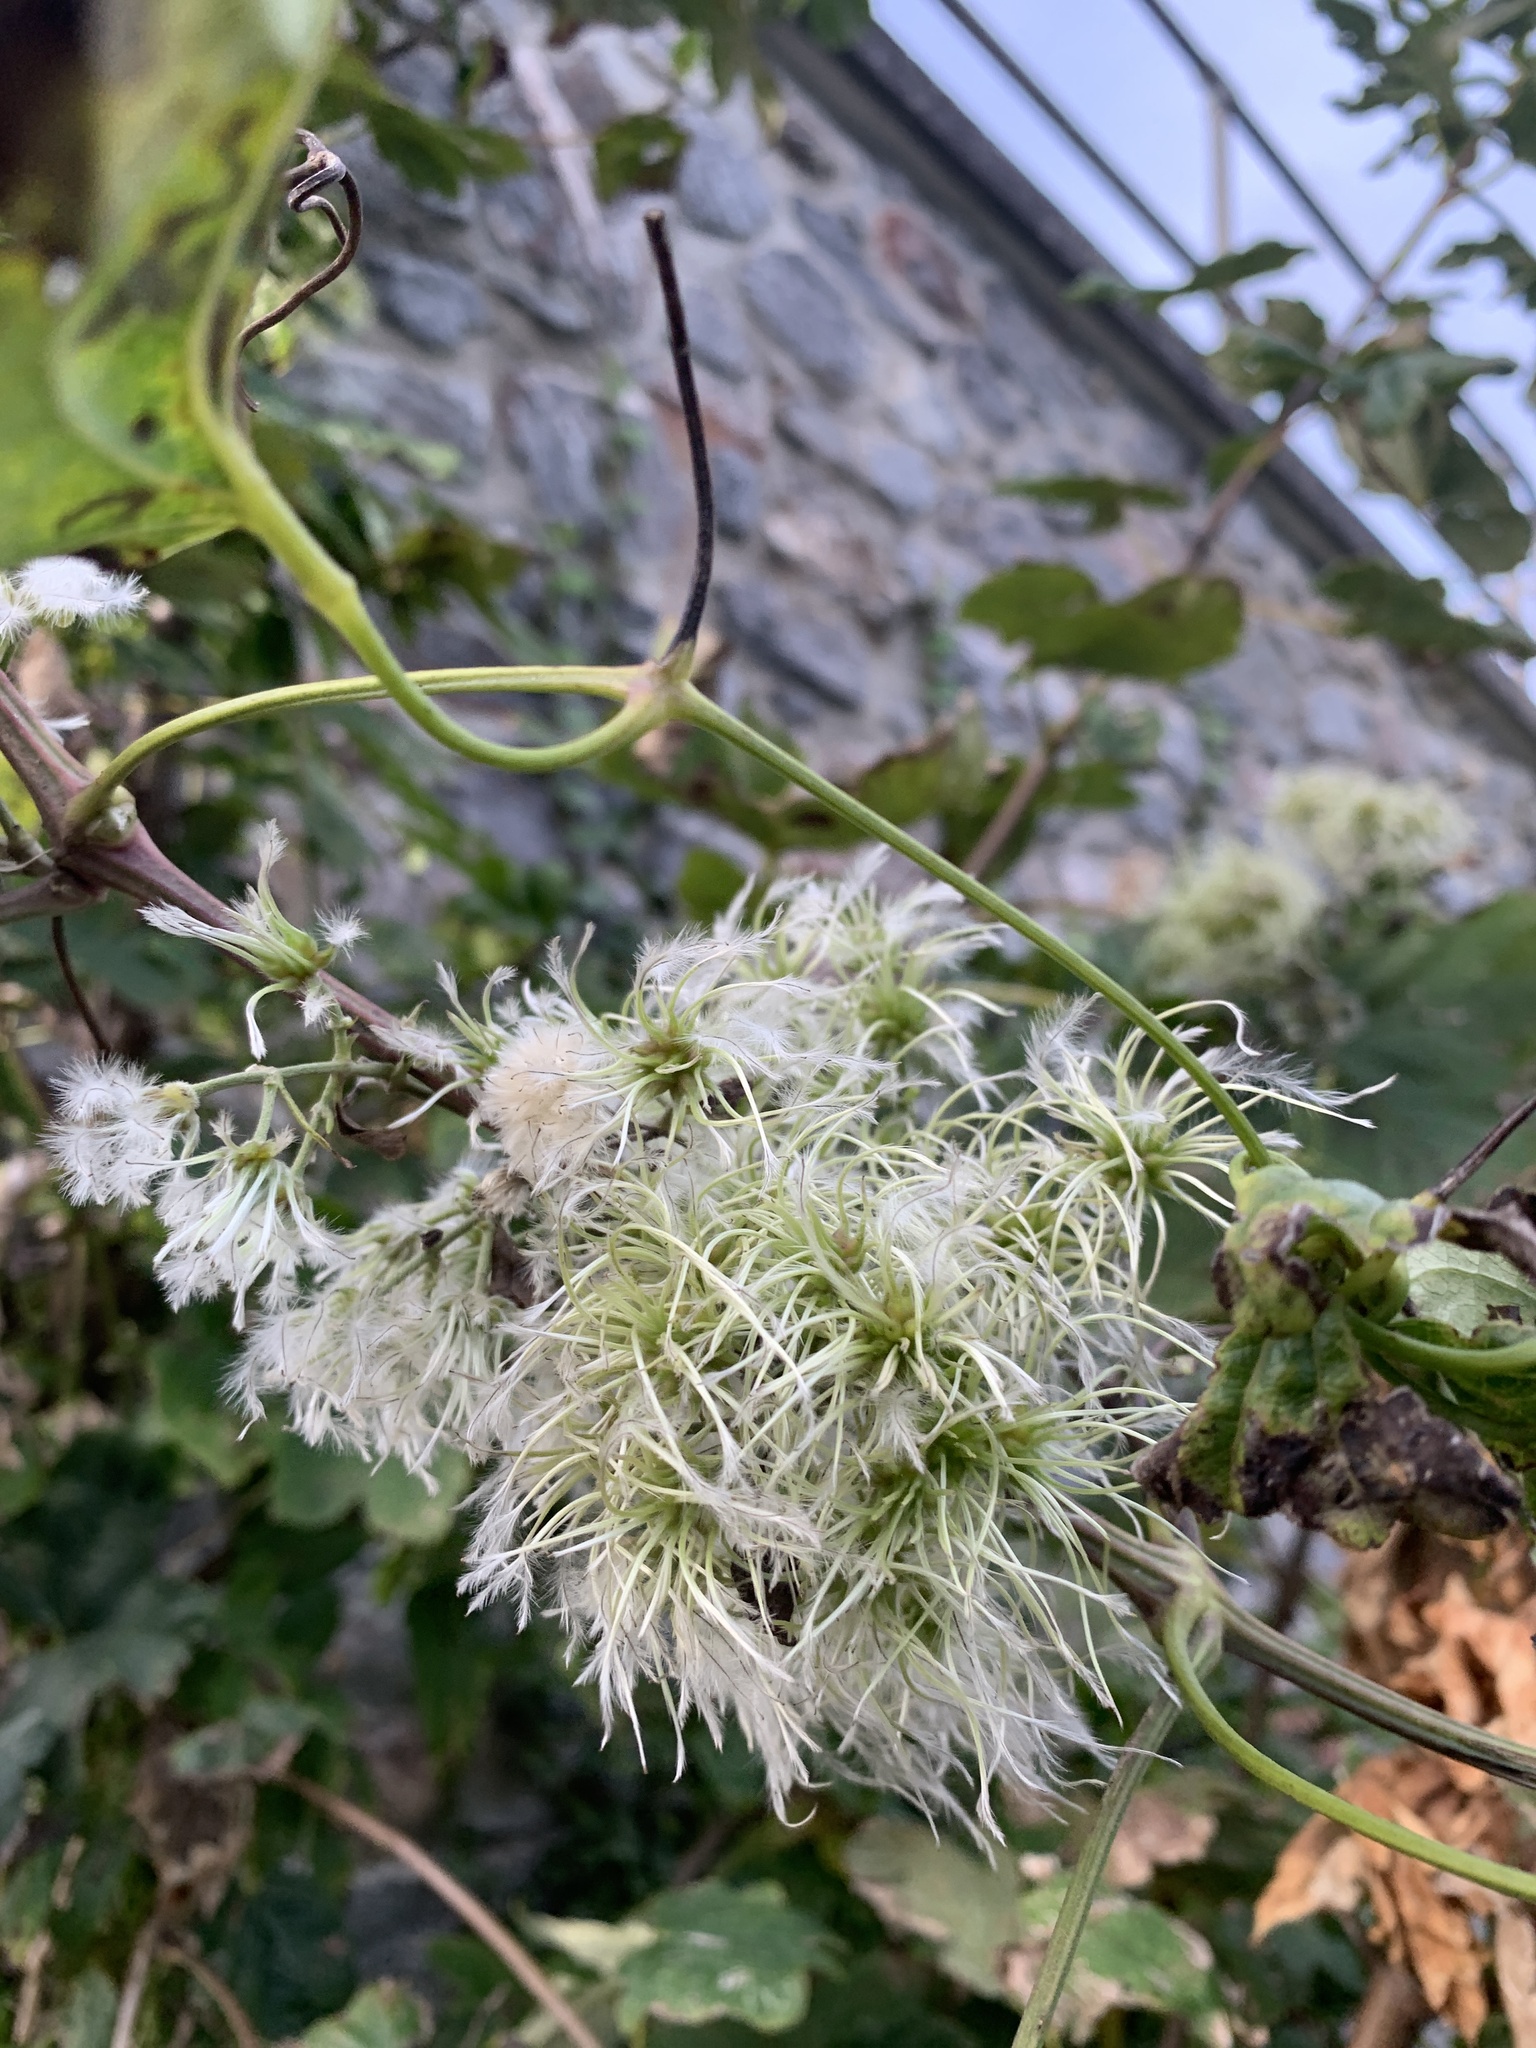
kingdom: Plantae
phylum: Tracheophyta
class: Magnoliopsida
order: Ranunculales
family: Ranunculaceae
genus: Clematis
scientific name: Clematis vitalba
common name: Evergreen clematis
